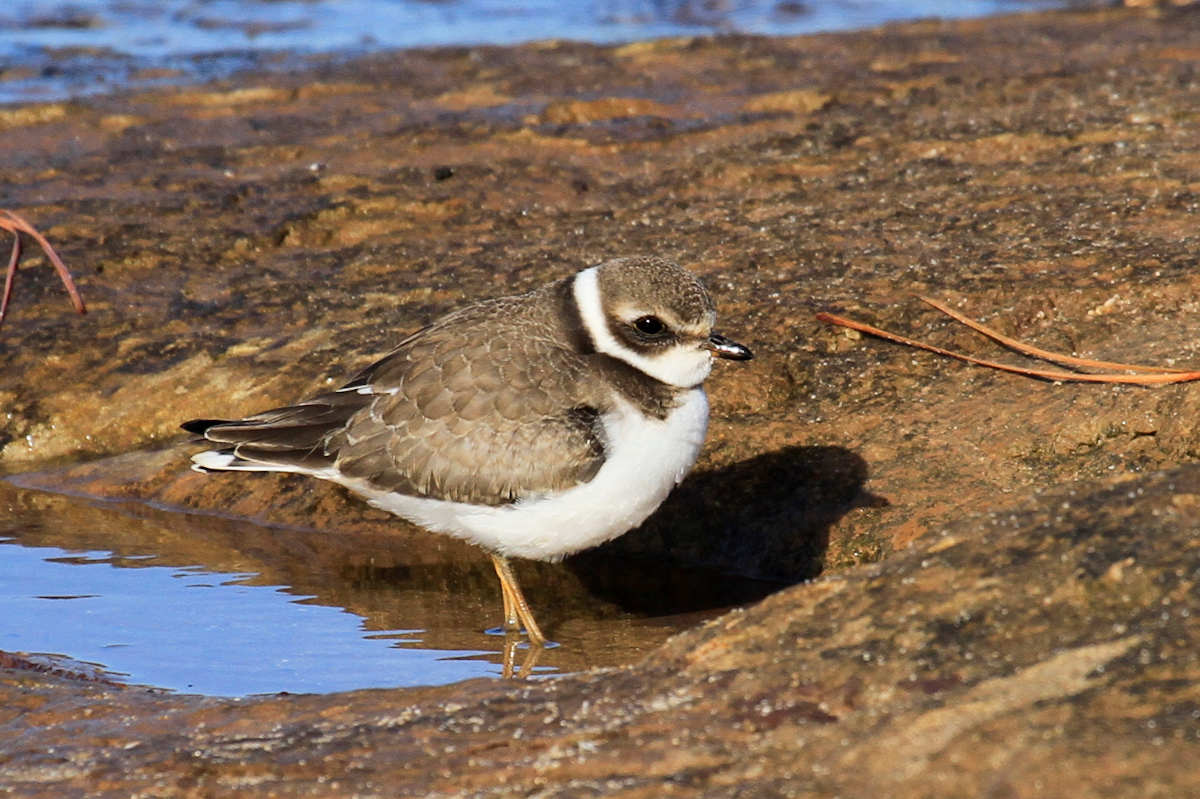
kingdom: Animalia
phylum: Chordata
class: Aves
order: Charadriiformes
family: Charadriidae
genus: Charadrius
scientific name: Charadrius semipalmatus
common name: Semipalmated plover
